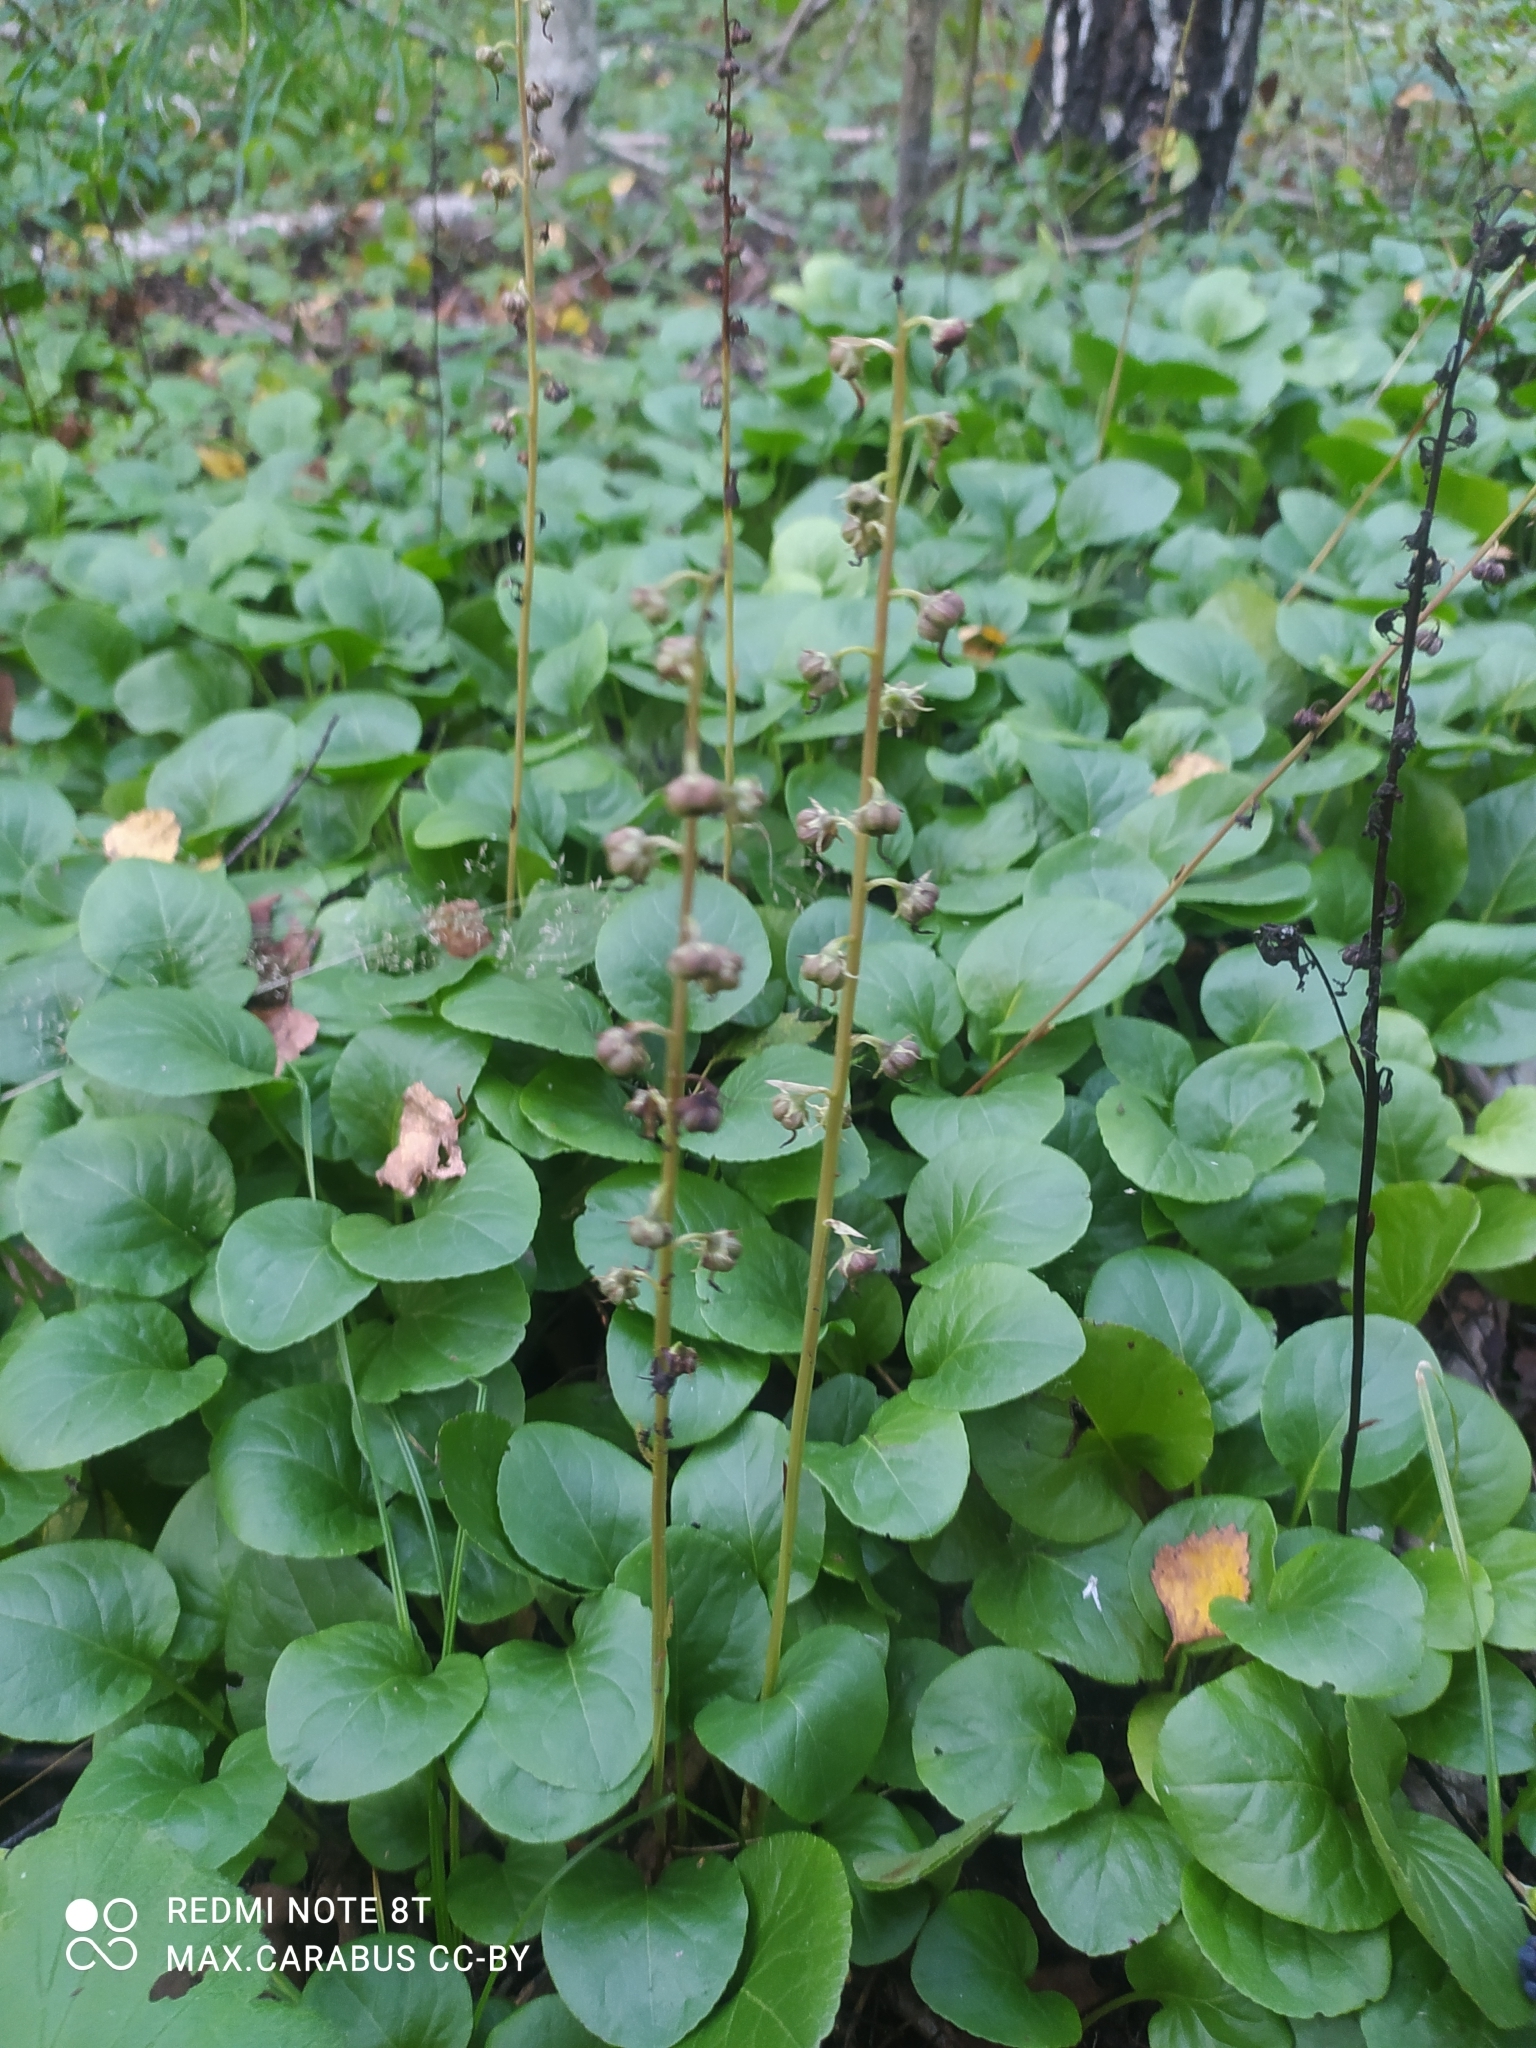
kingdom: Plantae
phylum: Tracheophyta
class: Magnoliopsida
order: Ericales
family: Ericaceae
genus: Pyrola
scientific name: Pyrola rotundifolia
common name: Round-leaved wintergreen
